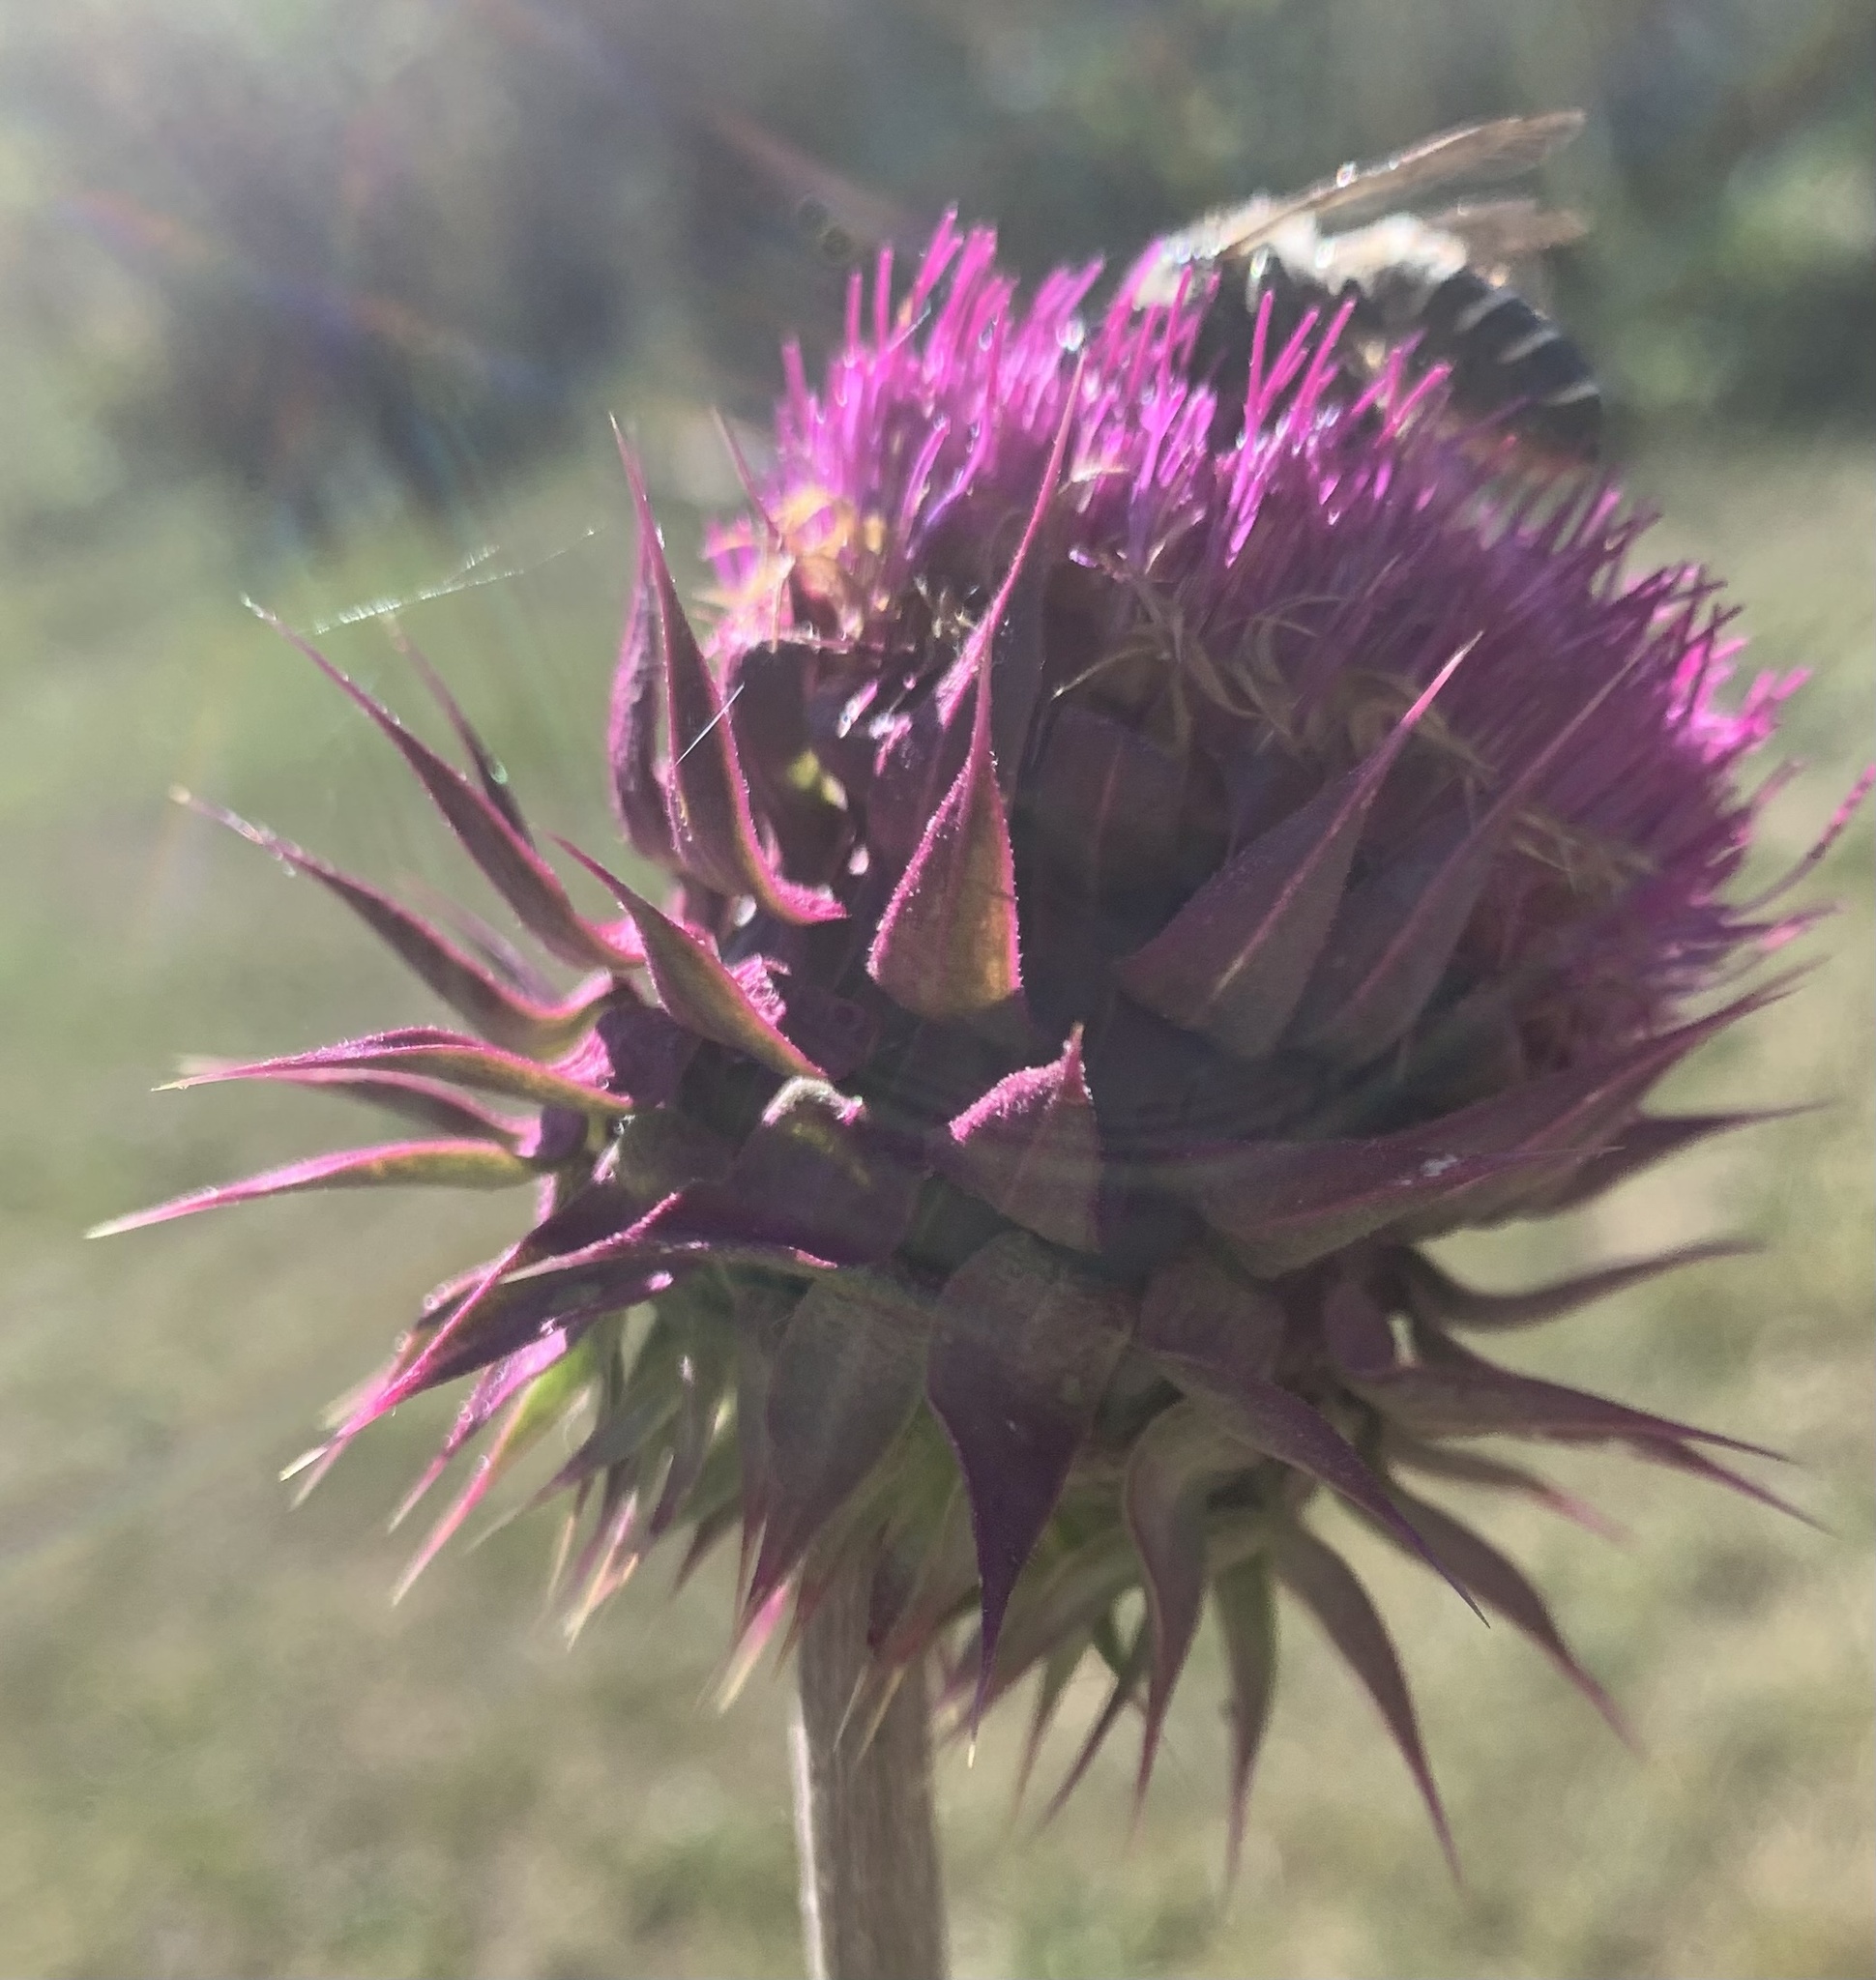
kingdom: Plantae
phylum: Tracheophyta
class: Magnoliopsida
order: Asterales
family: Asteraceae
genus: Carduus
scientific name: Carduus nutans
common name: Musk thistle
